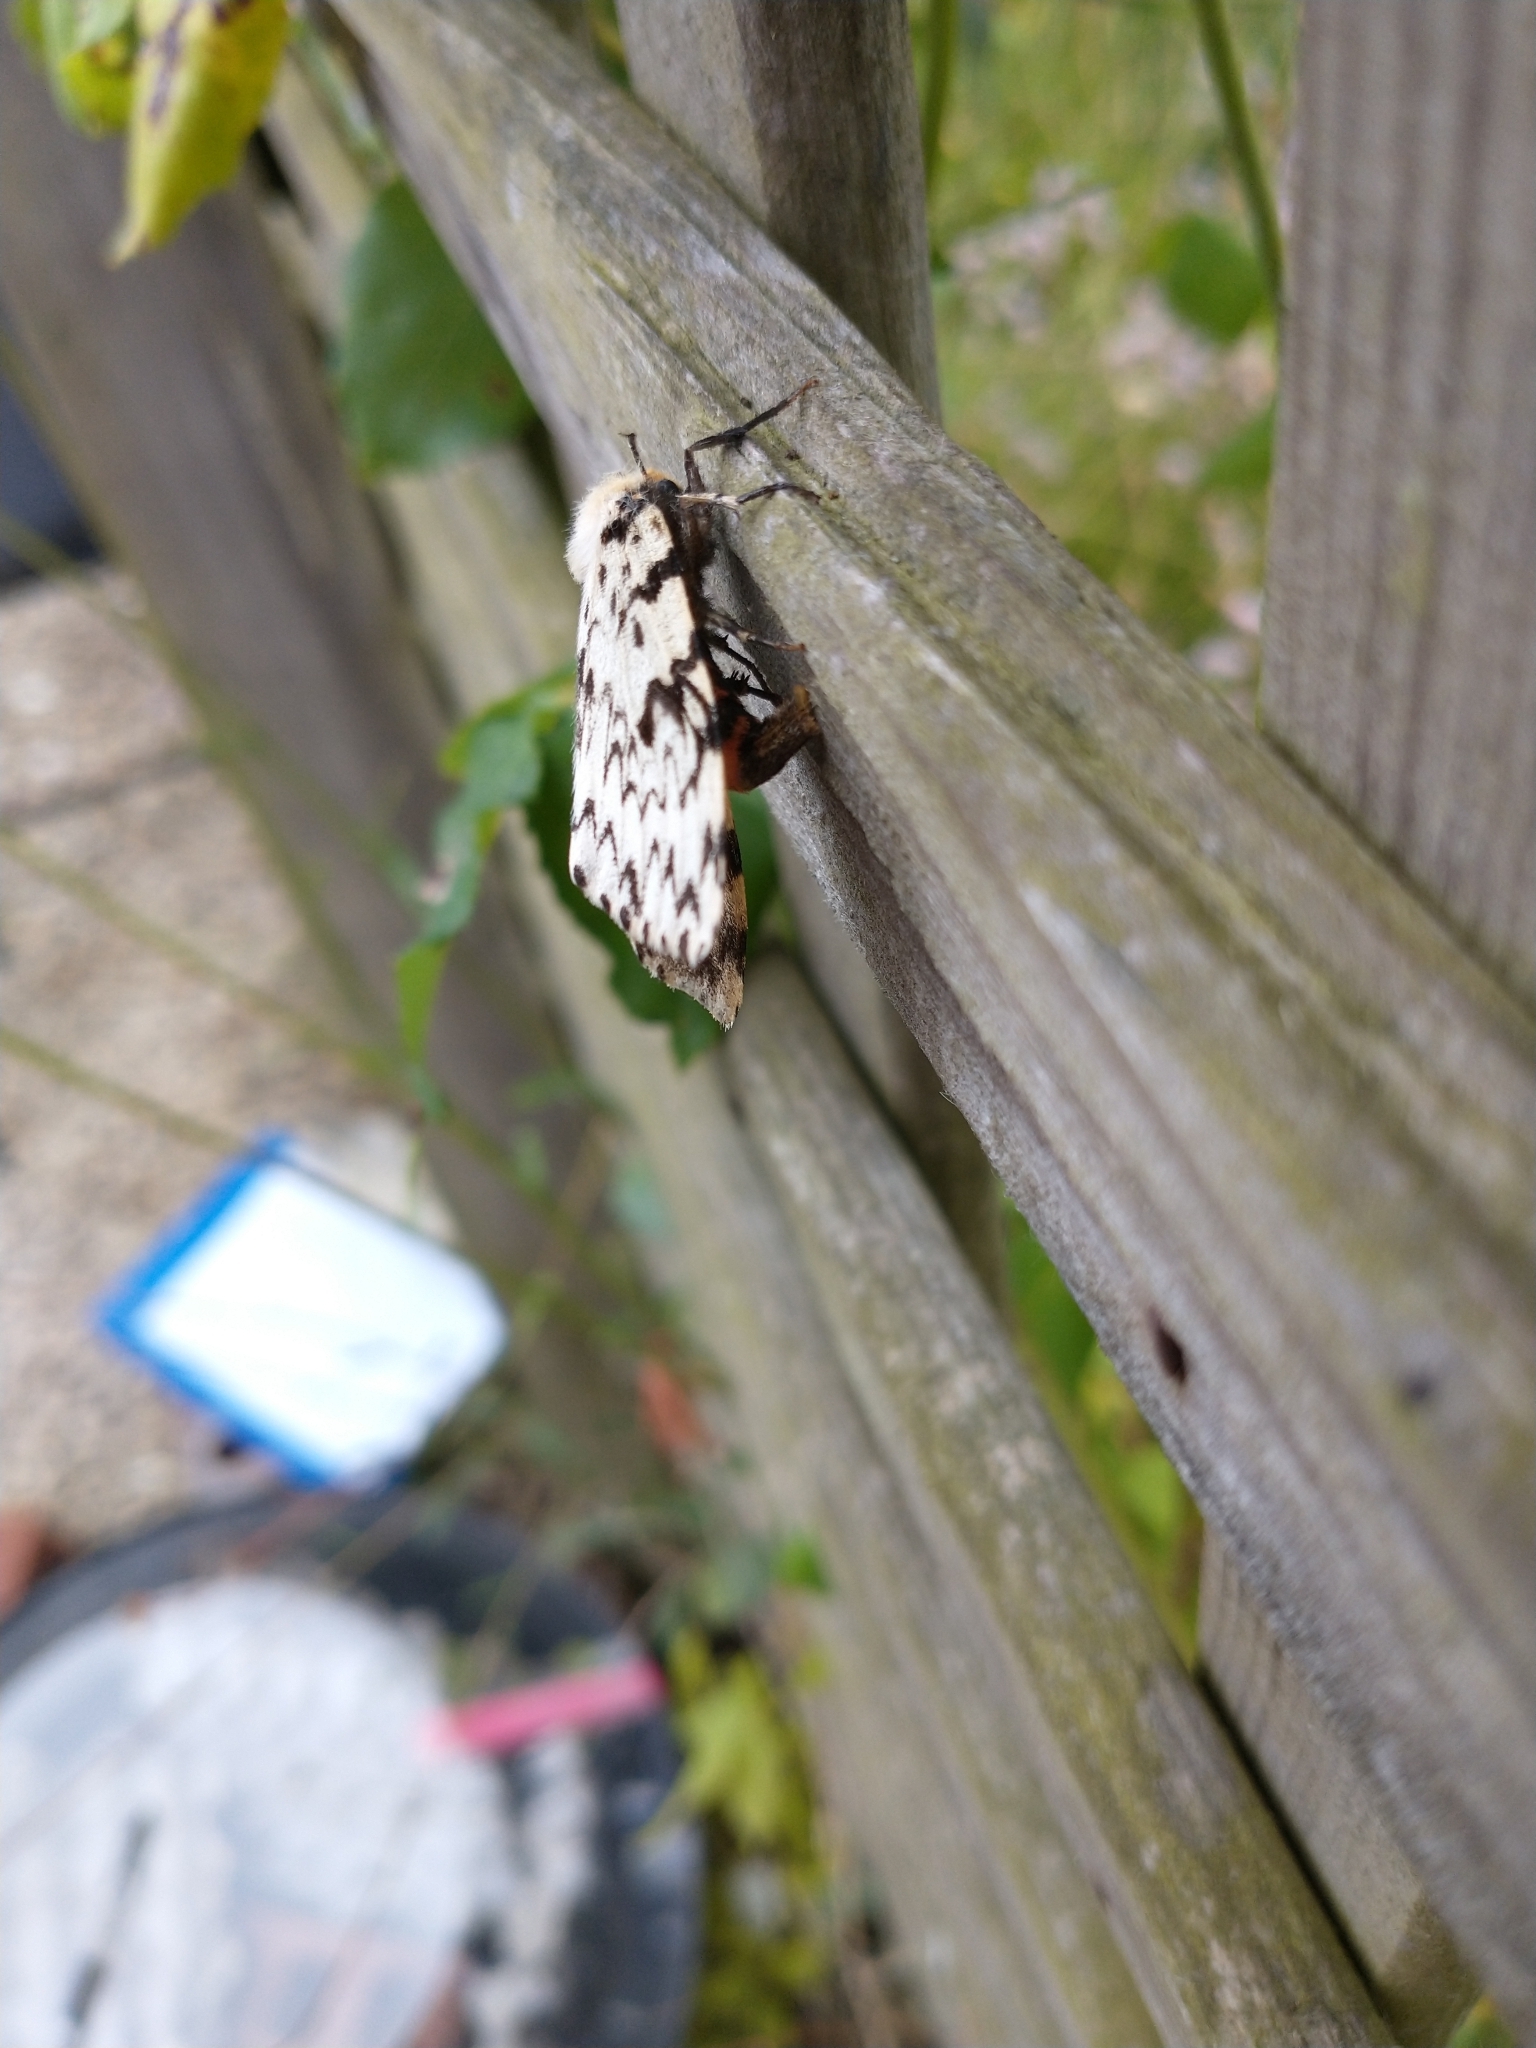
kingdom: Animalia
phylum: Arthropoda
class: Insecta
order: Lepidoptera
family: Erebidae
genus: Lymantria
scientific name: Lymantria monacha
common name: Black arches
